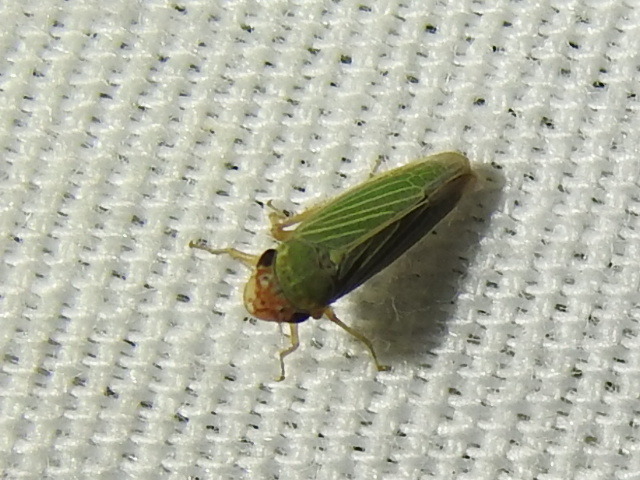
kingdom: Animalia
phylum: Arthropoda
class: Insecta
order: Hemiptera
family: Cicadellidae
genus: Xyphon
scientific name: Xyphon reticulatum
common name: Planthopper
